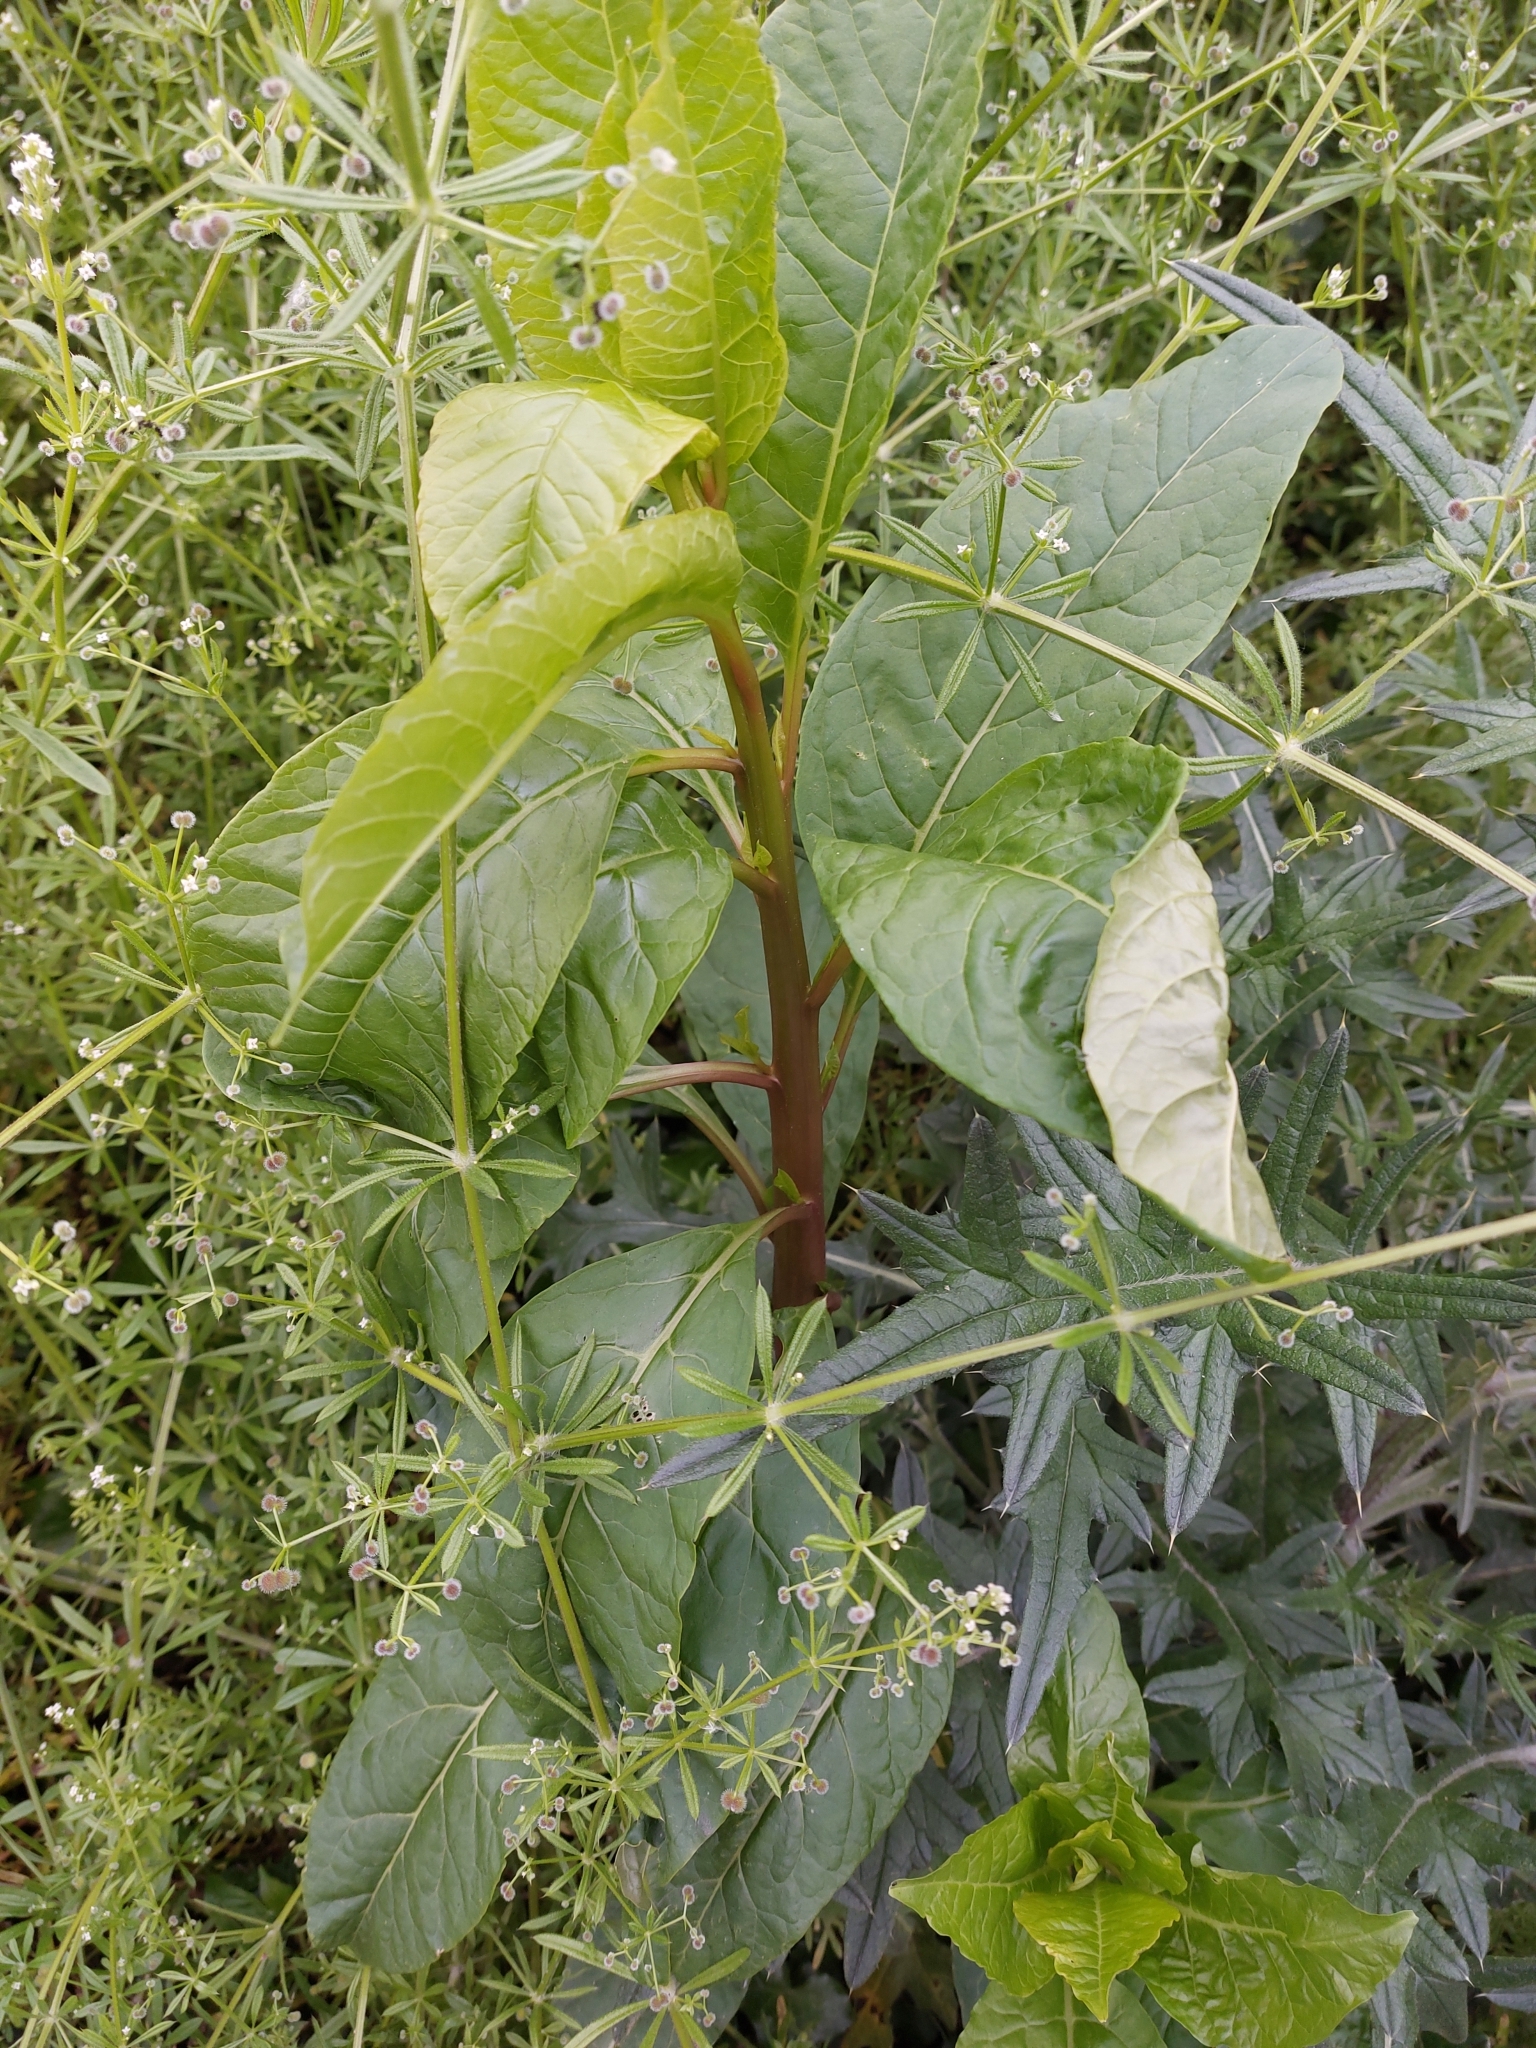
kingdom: Plantae
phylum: Tracheophyta
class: Magnoliopsida
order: Caryophyllales
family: Phytolaccaceae
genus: Phytolacca
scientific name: Phytolacca americana
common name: American pokeweed
